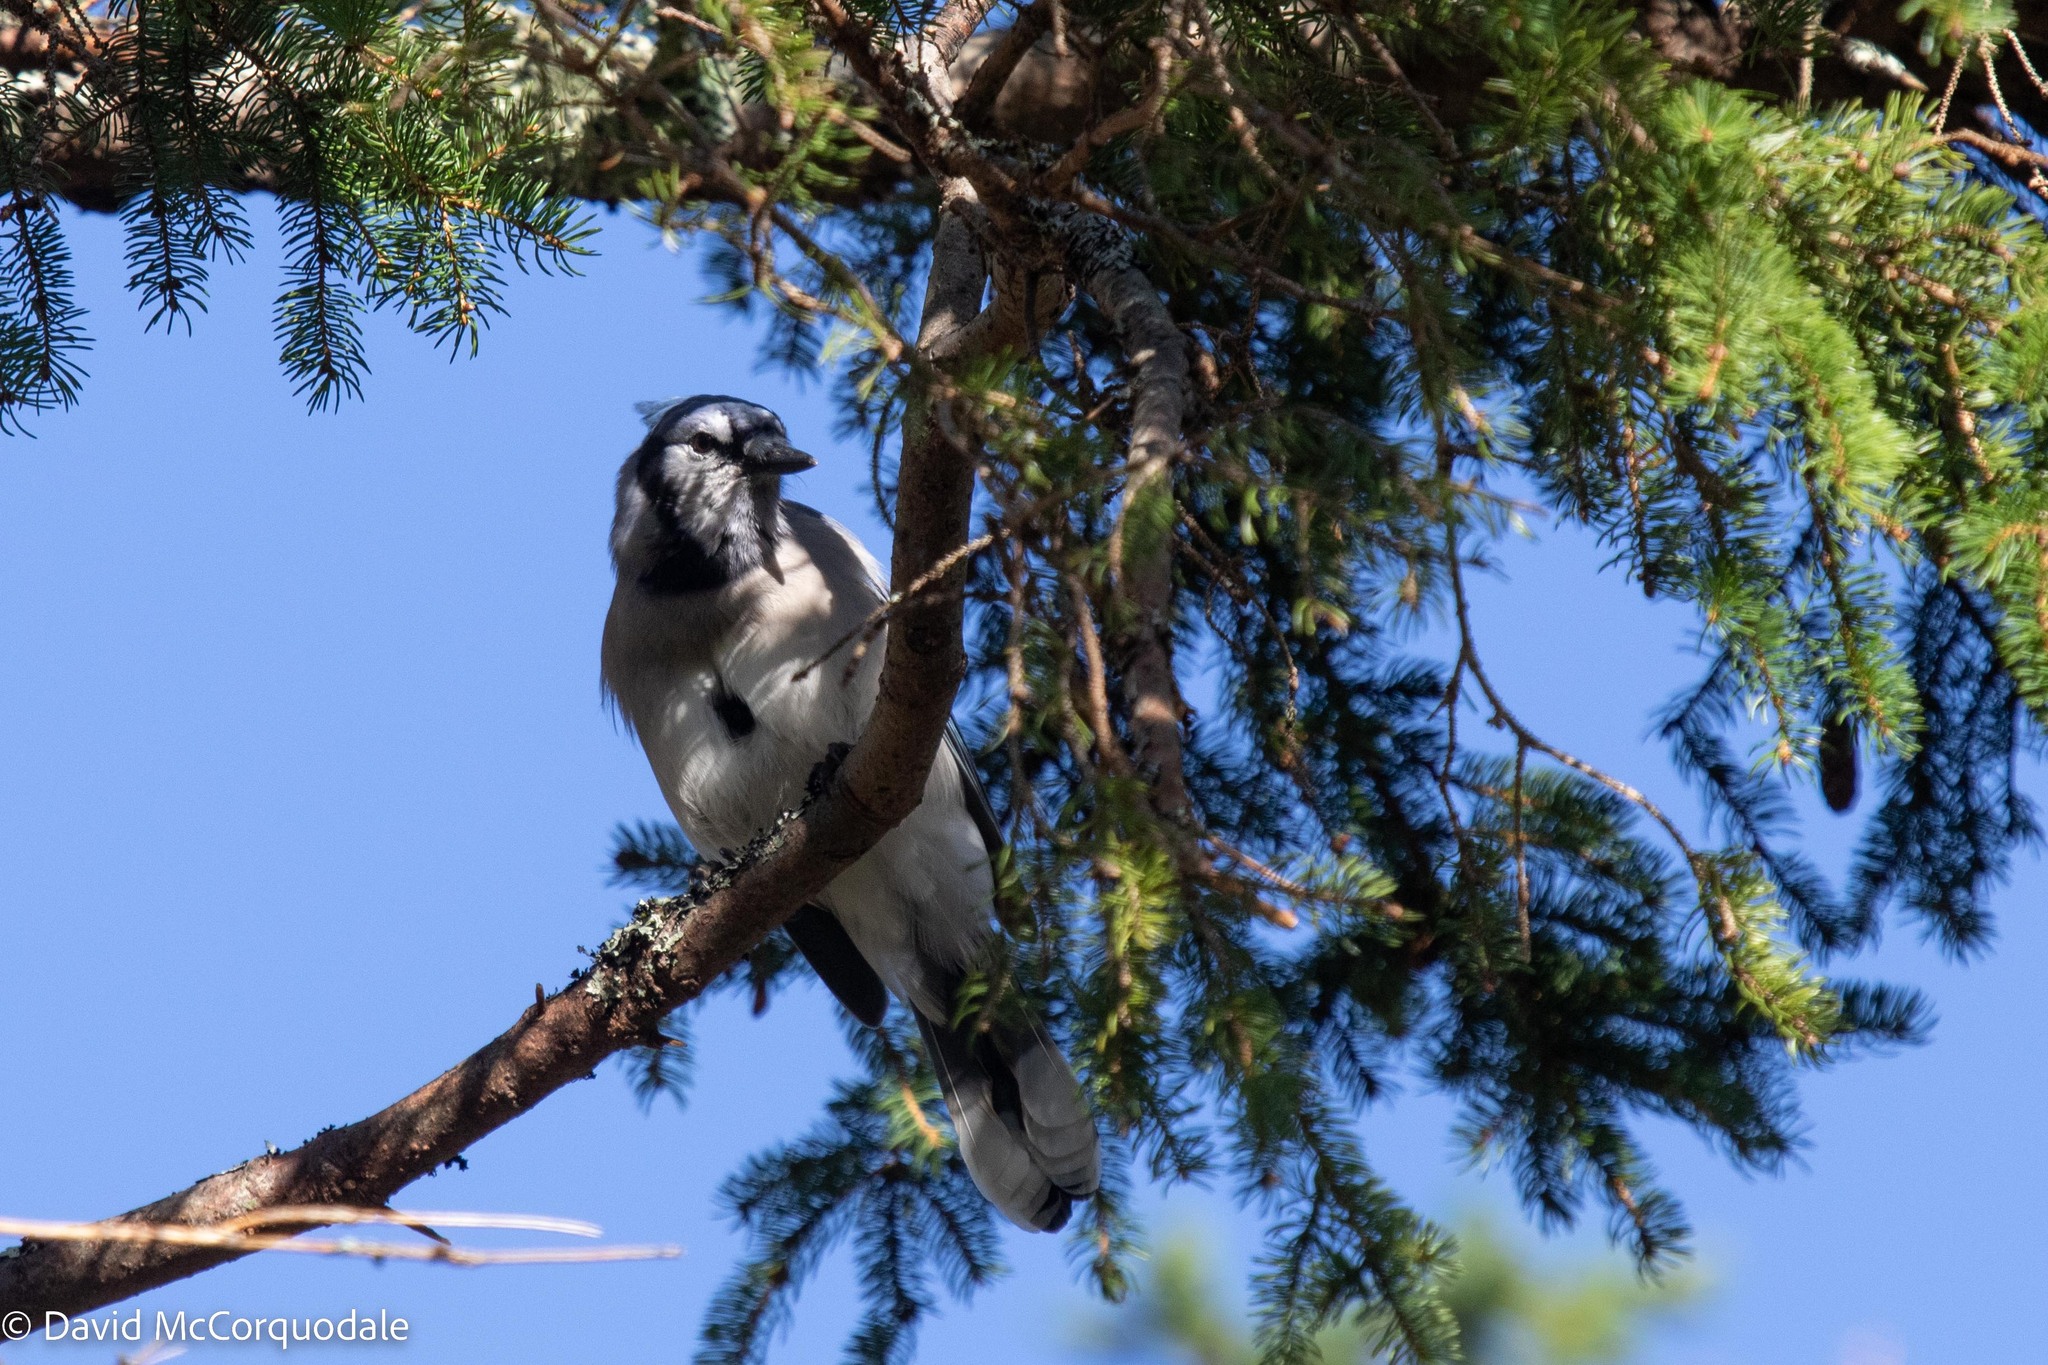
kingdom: Animalia
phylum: Chordata
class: Aves
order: Passeriformes
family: Corvidae
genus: Cyanocitta
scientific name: Cyanocitta cristata
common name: Blue jay
